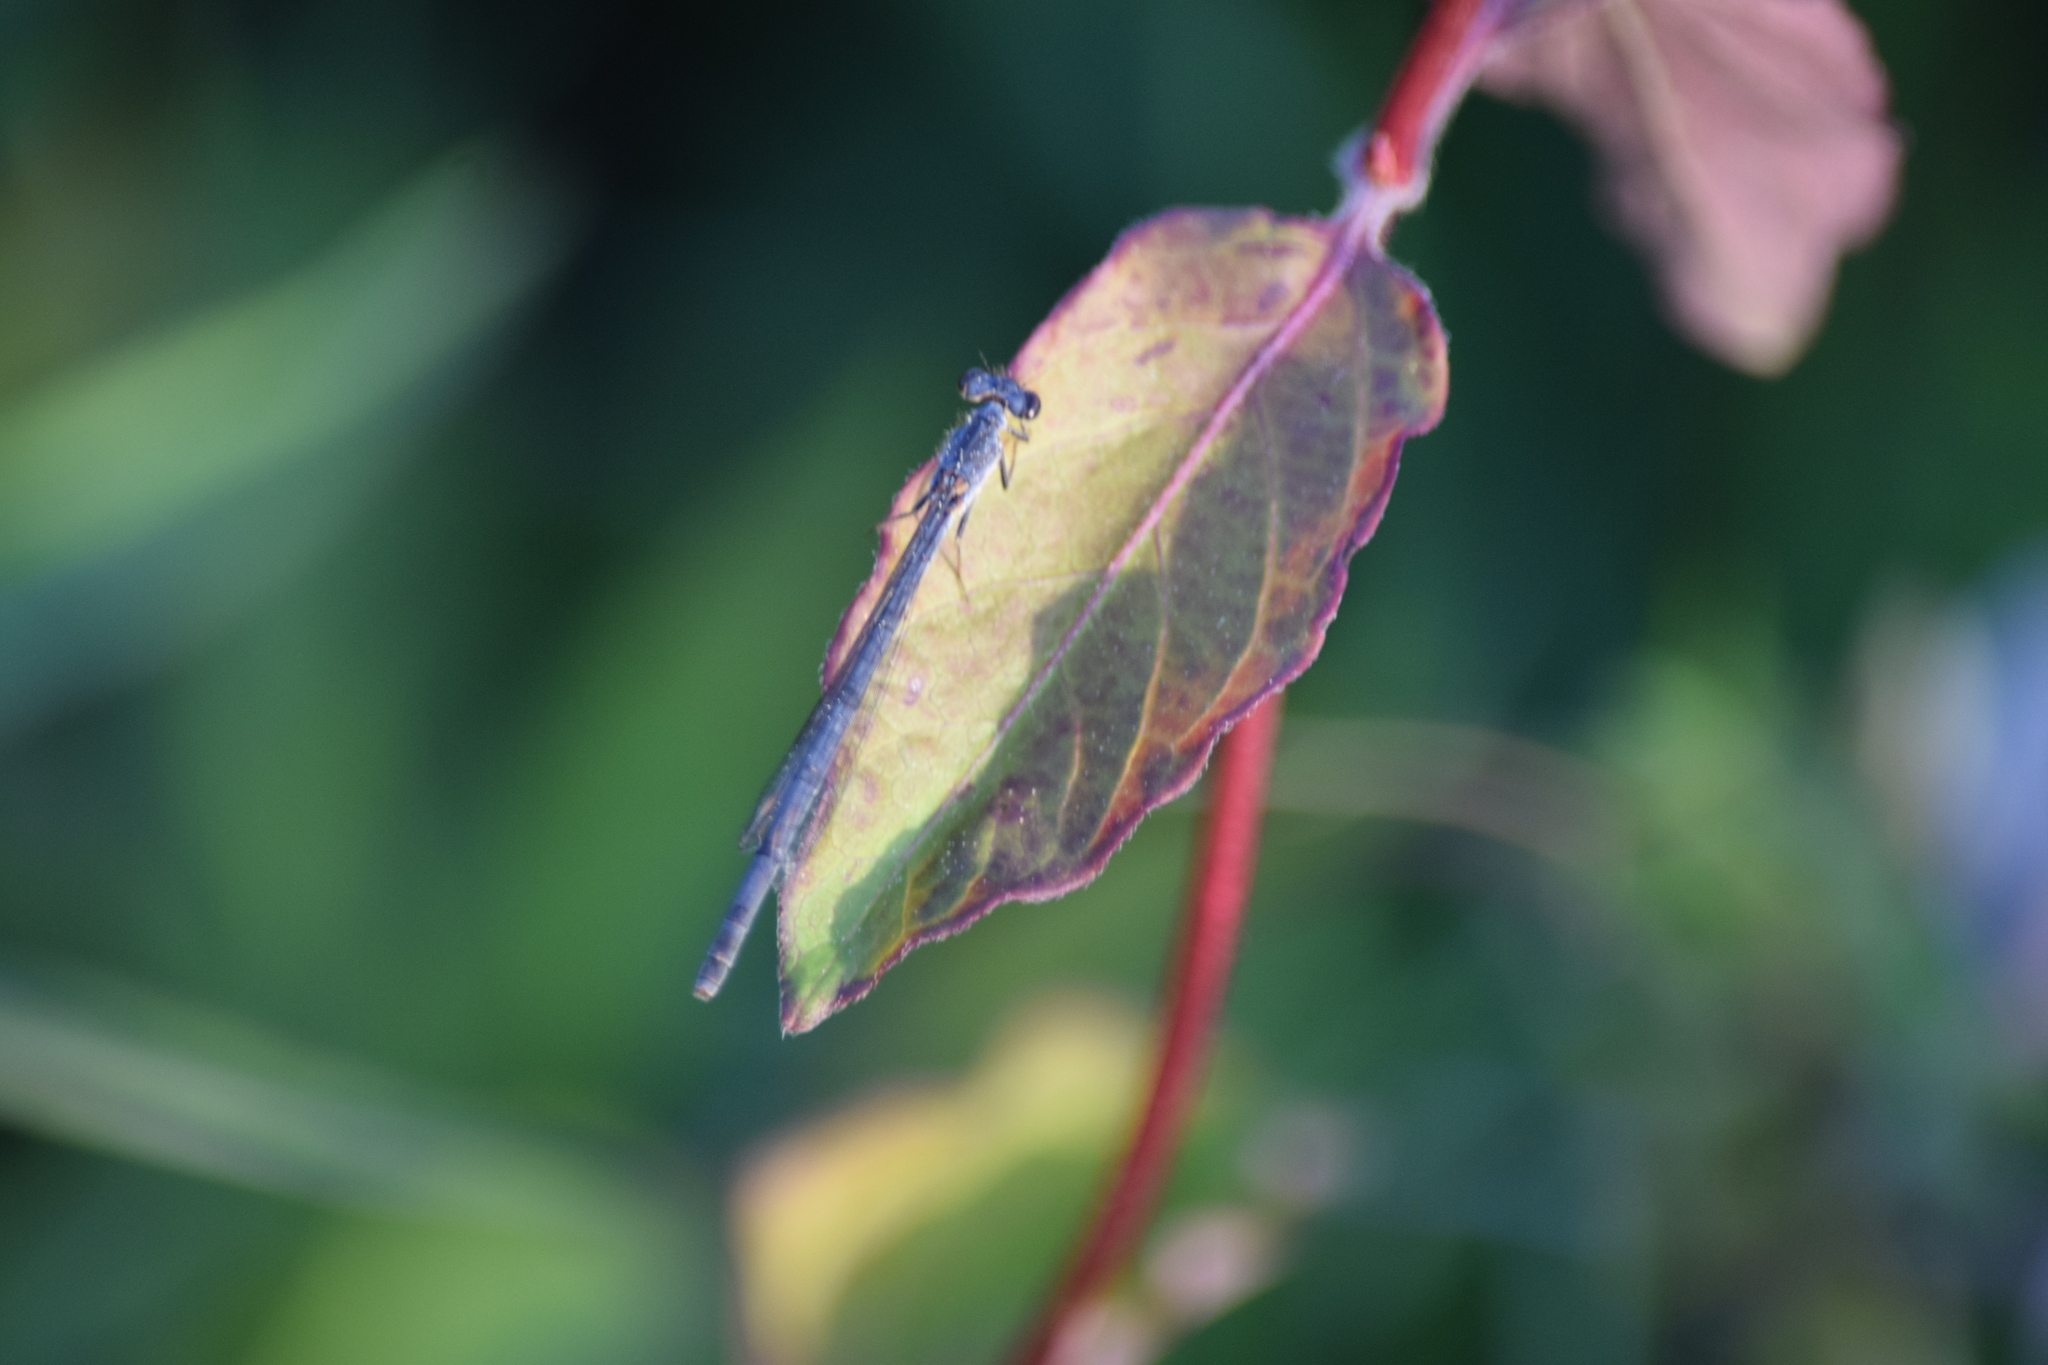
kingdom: Animalia
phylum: Arthropoda
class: Insecta
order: Odonata
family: Coenagrionidae
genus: Ischnura
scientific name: Ischnura posita
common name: Fragile forktail
